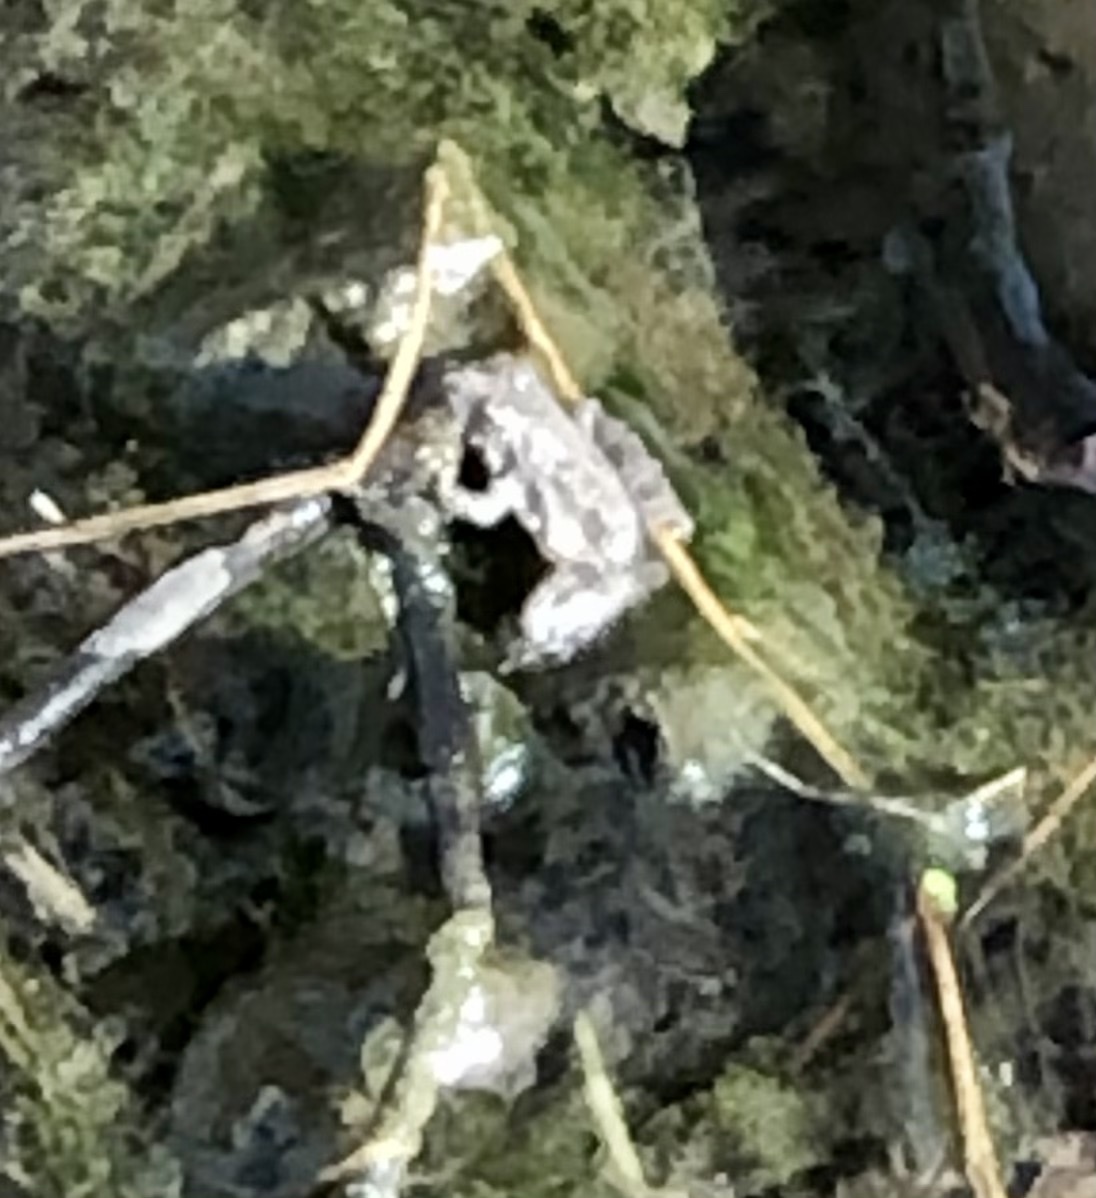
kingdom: Animalia
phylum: Chordata
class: Amphibia
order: Anura
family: Hylidae
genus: Acris
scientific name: Acris blanchardi
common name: Blanchard's cricket frog
